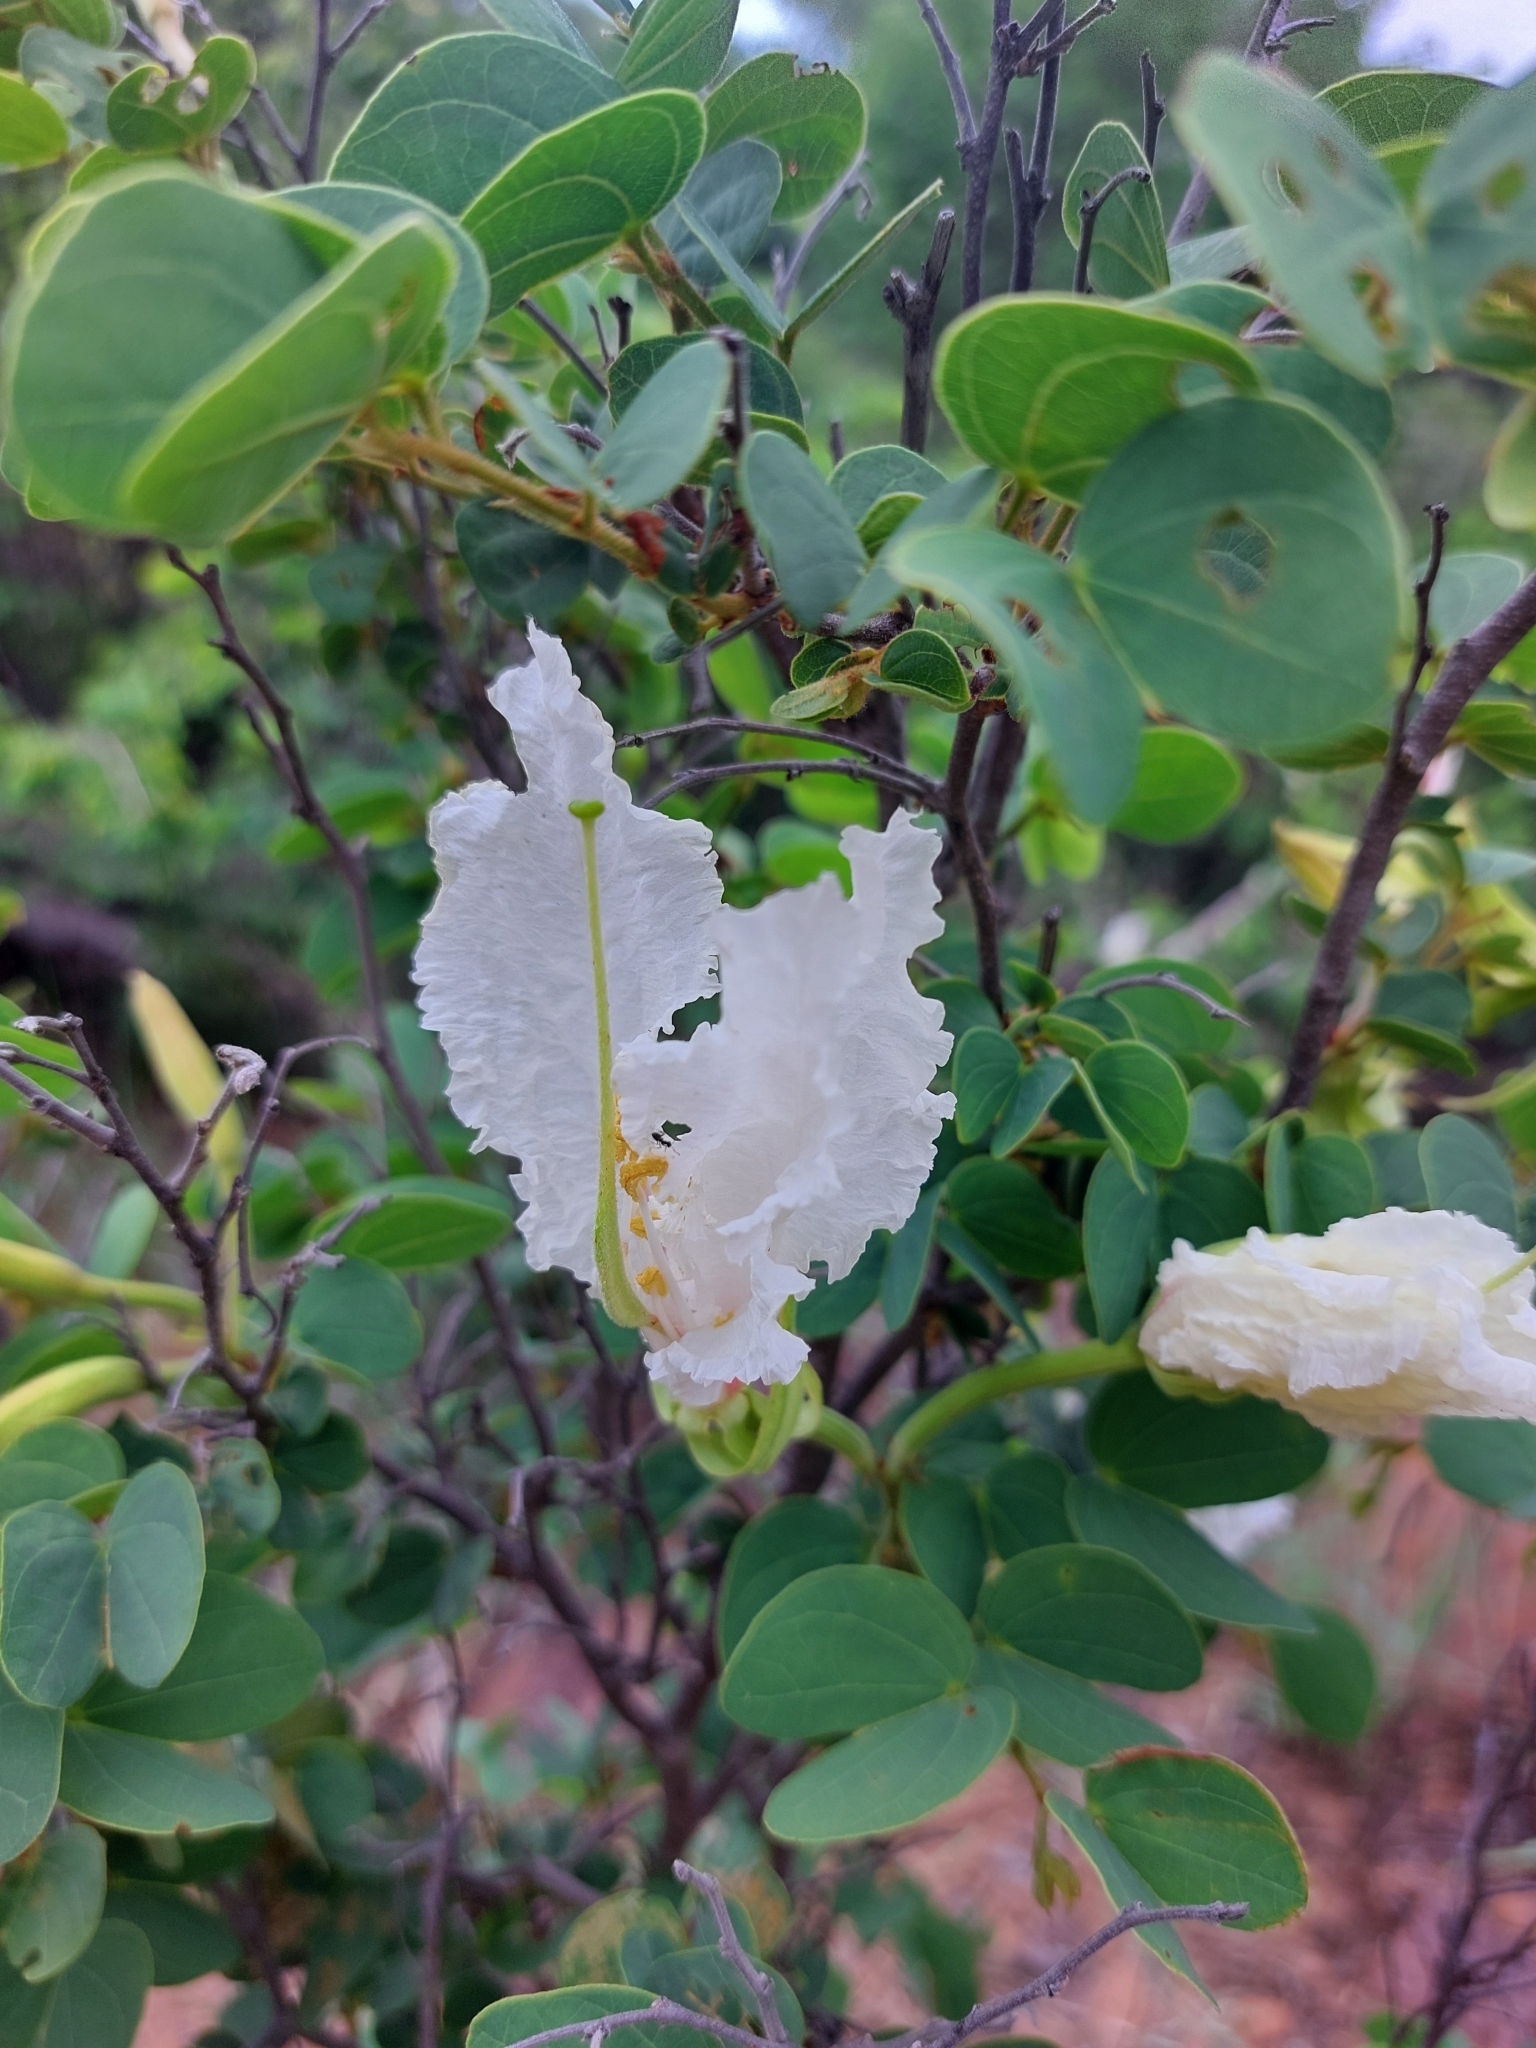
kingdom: Plantae
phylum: Tracheophyta
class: Magnoliopsida
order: Fabales
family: Fabaceae
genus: Bauhinia
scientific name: Bauhinia macrantha
